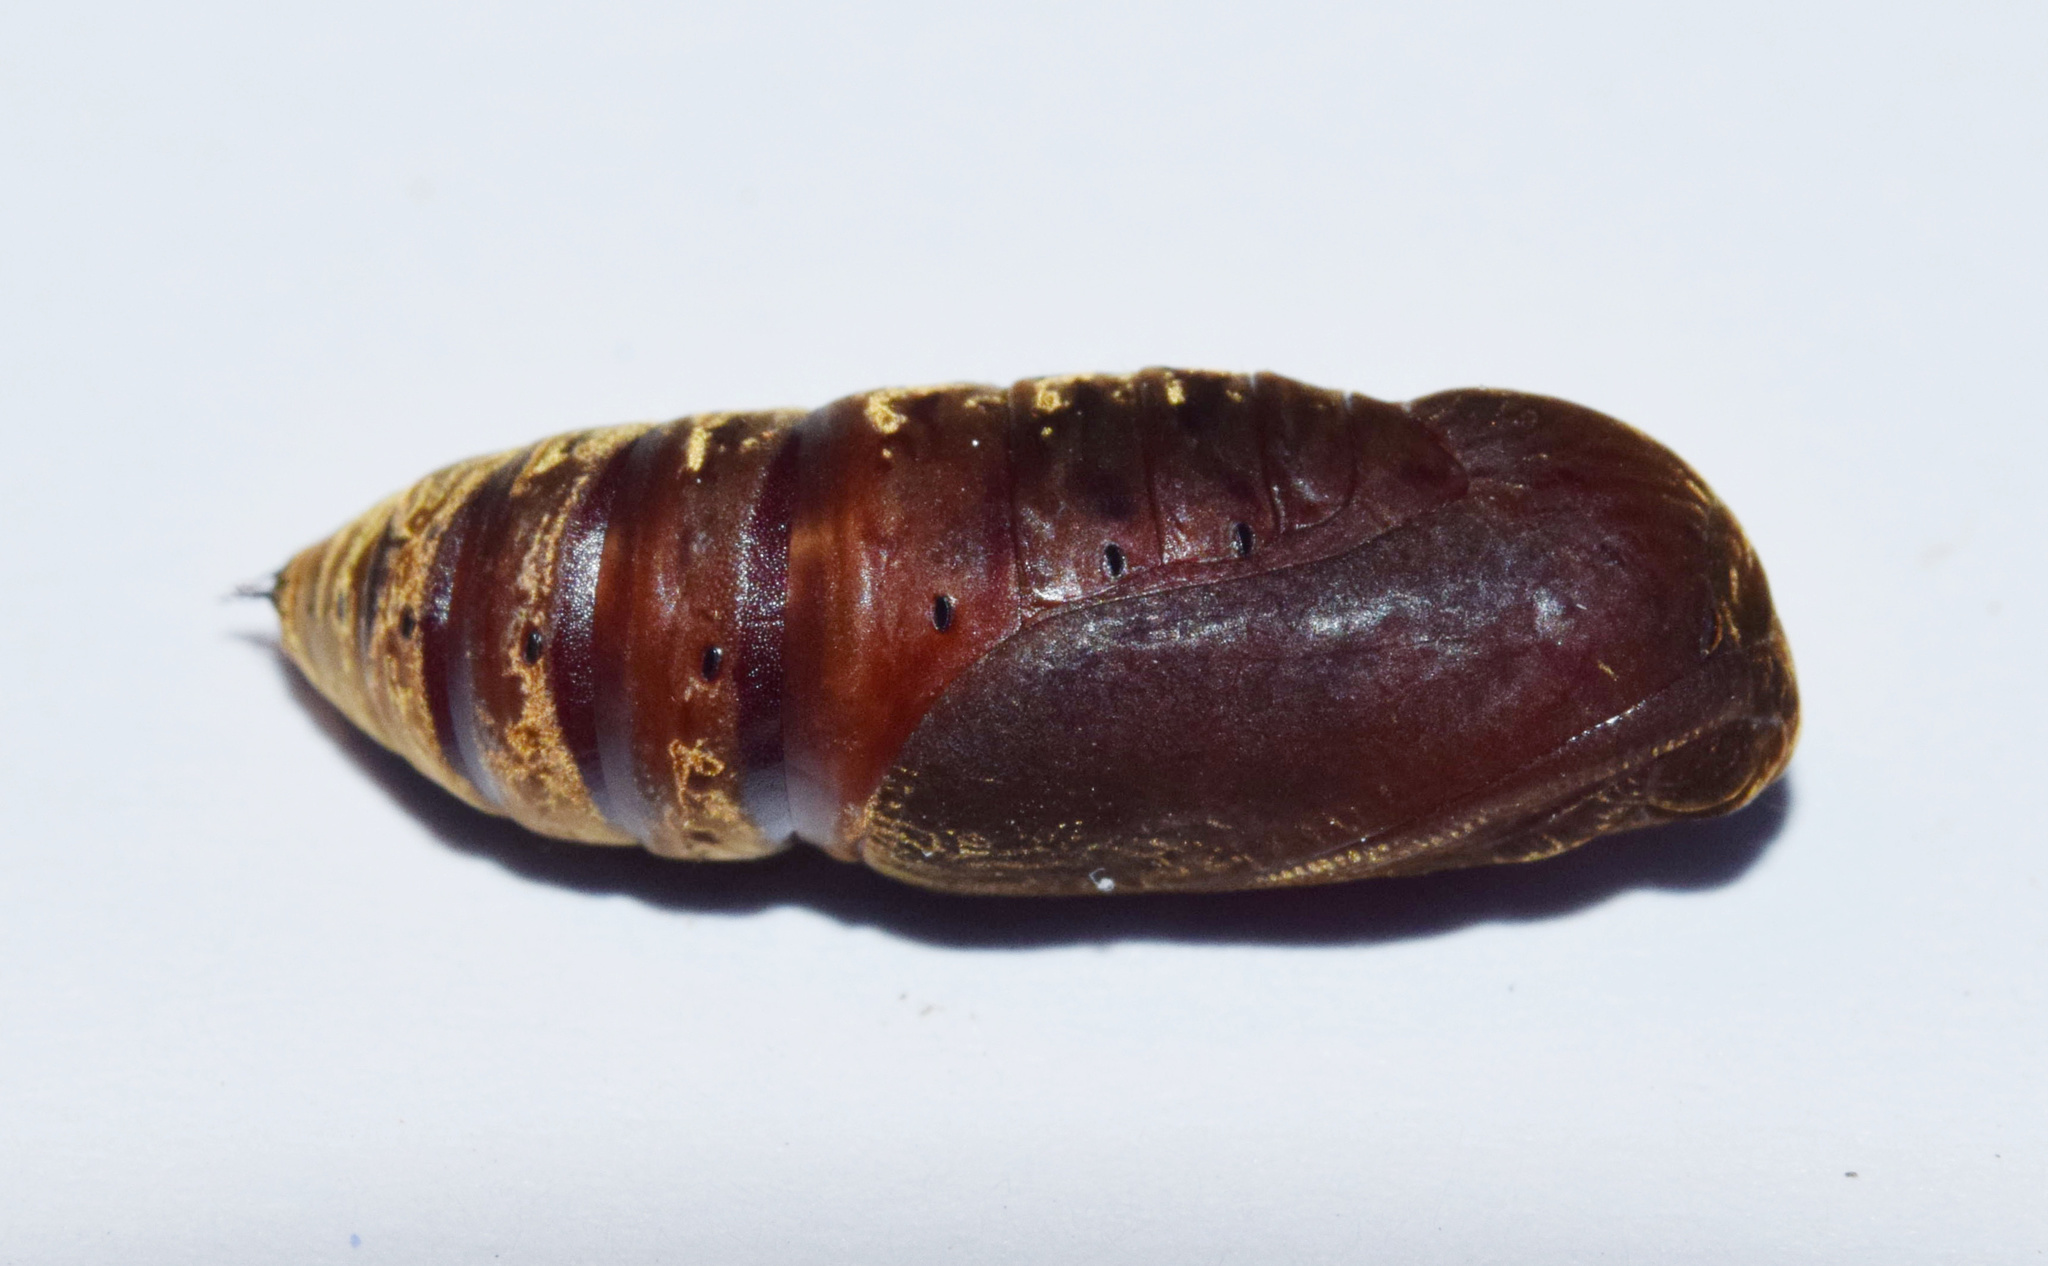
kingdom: Animalia
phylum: Arthropoda
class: Insecta
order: Lepidoptera
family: Erebidae
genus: Rhanidophora
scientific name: Rhanidophora cinctigutta
